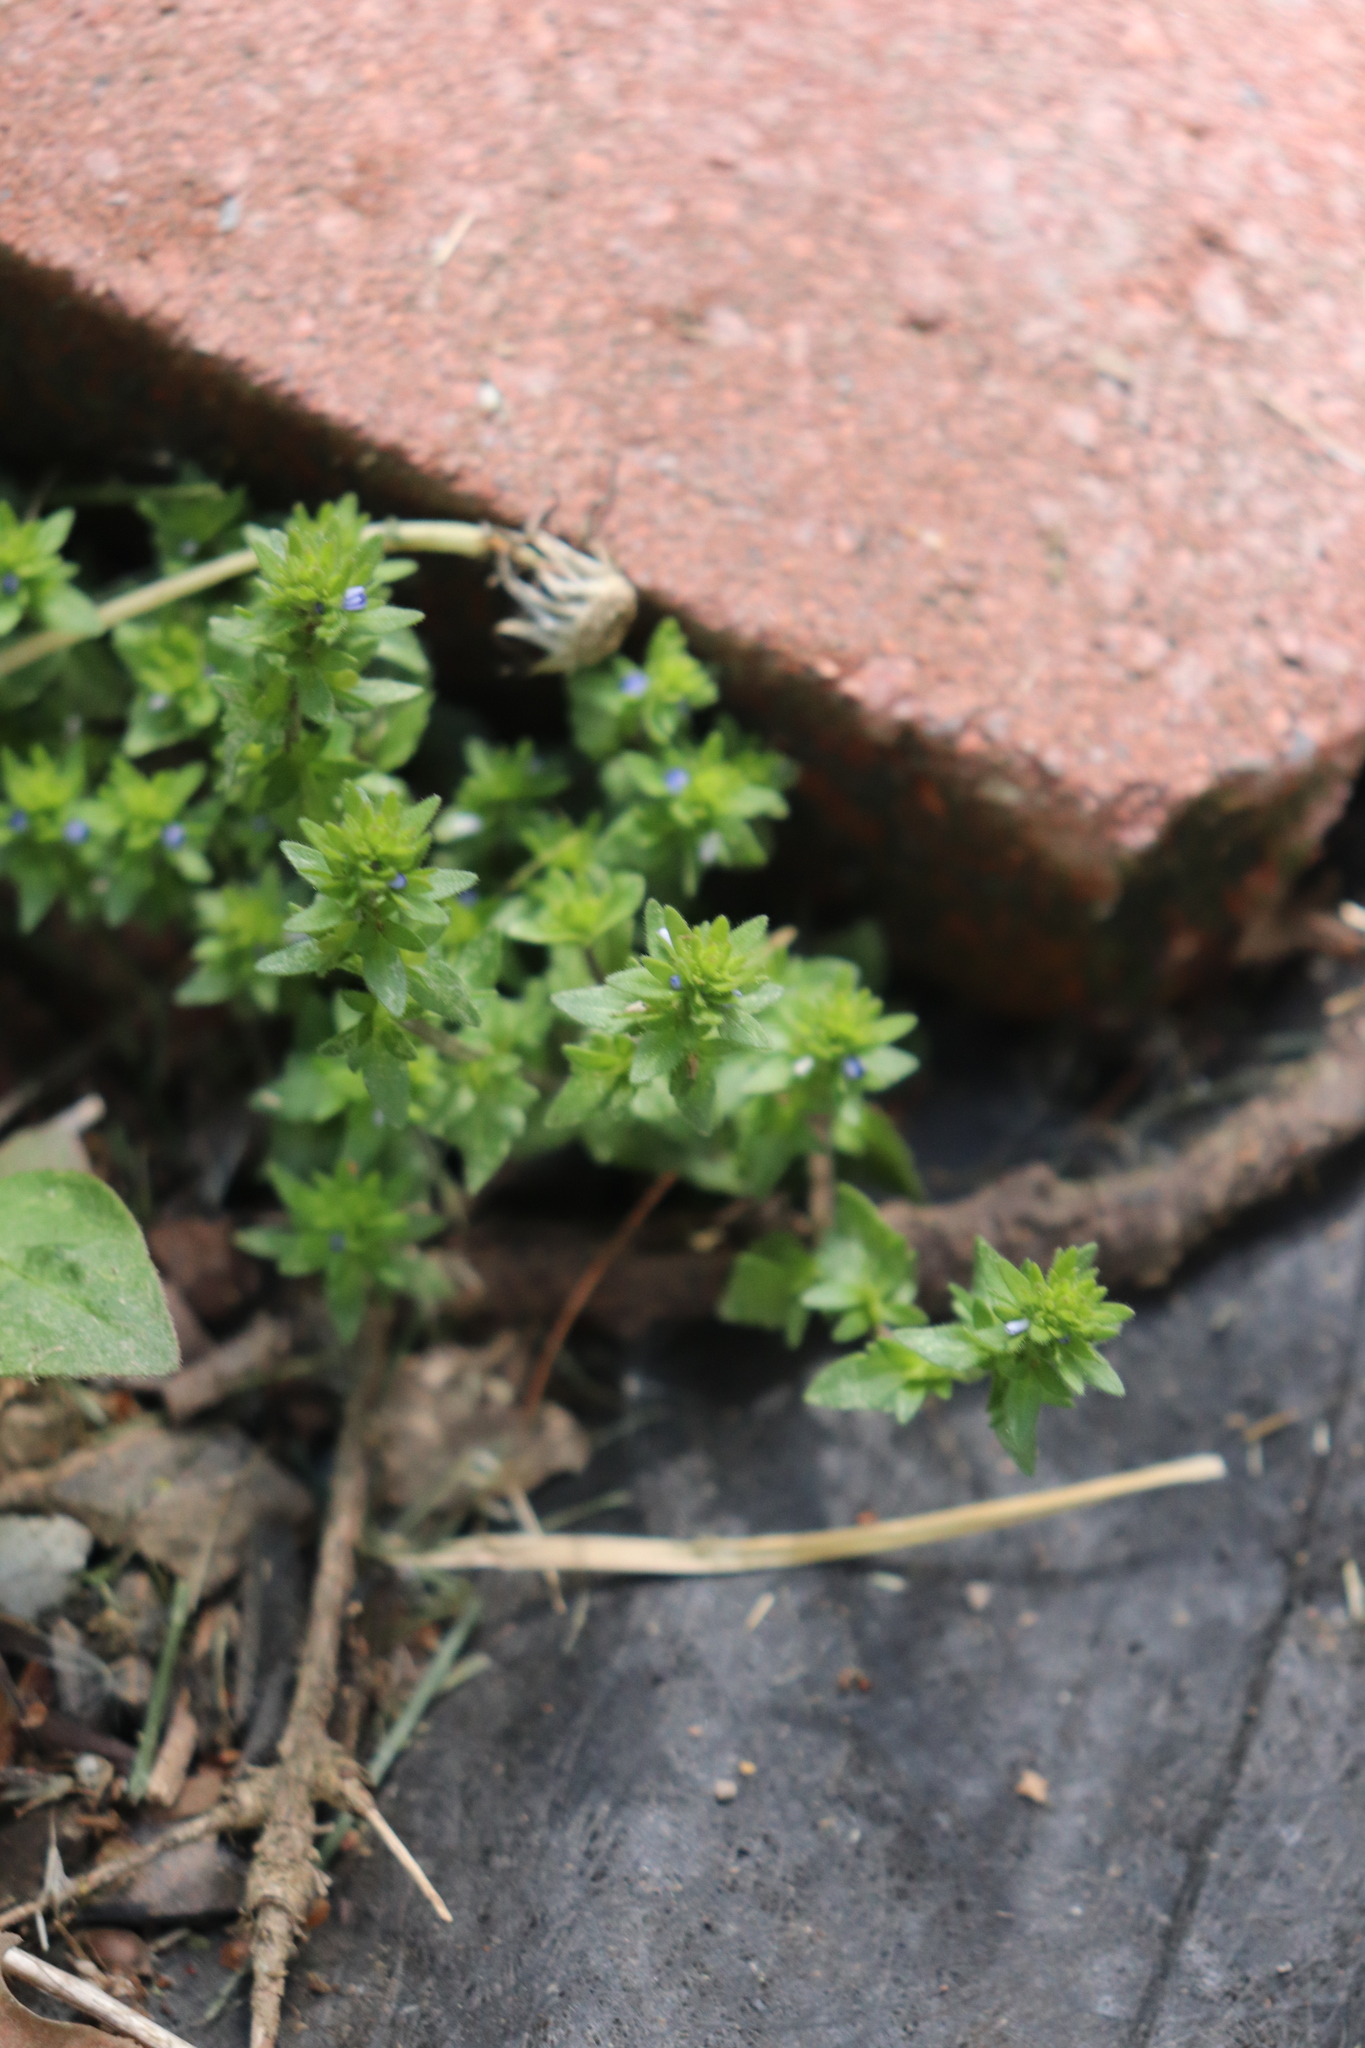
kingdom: Plantae
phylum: Tracheophyta
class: Magnoliopsida
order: Lamiales
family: Plantaginaceae
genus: Veronica
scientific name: Veronica arvensis
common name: Corn speedwell
